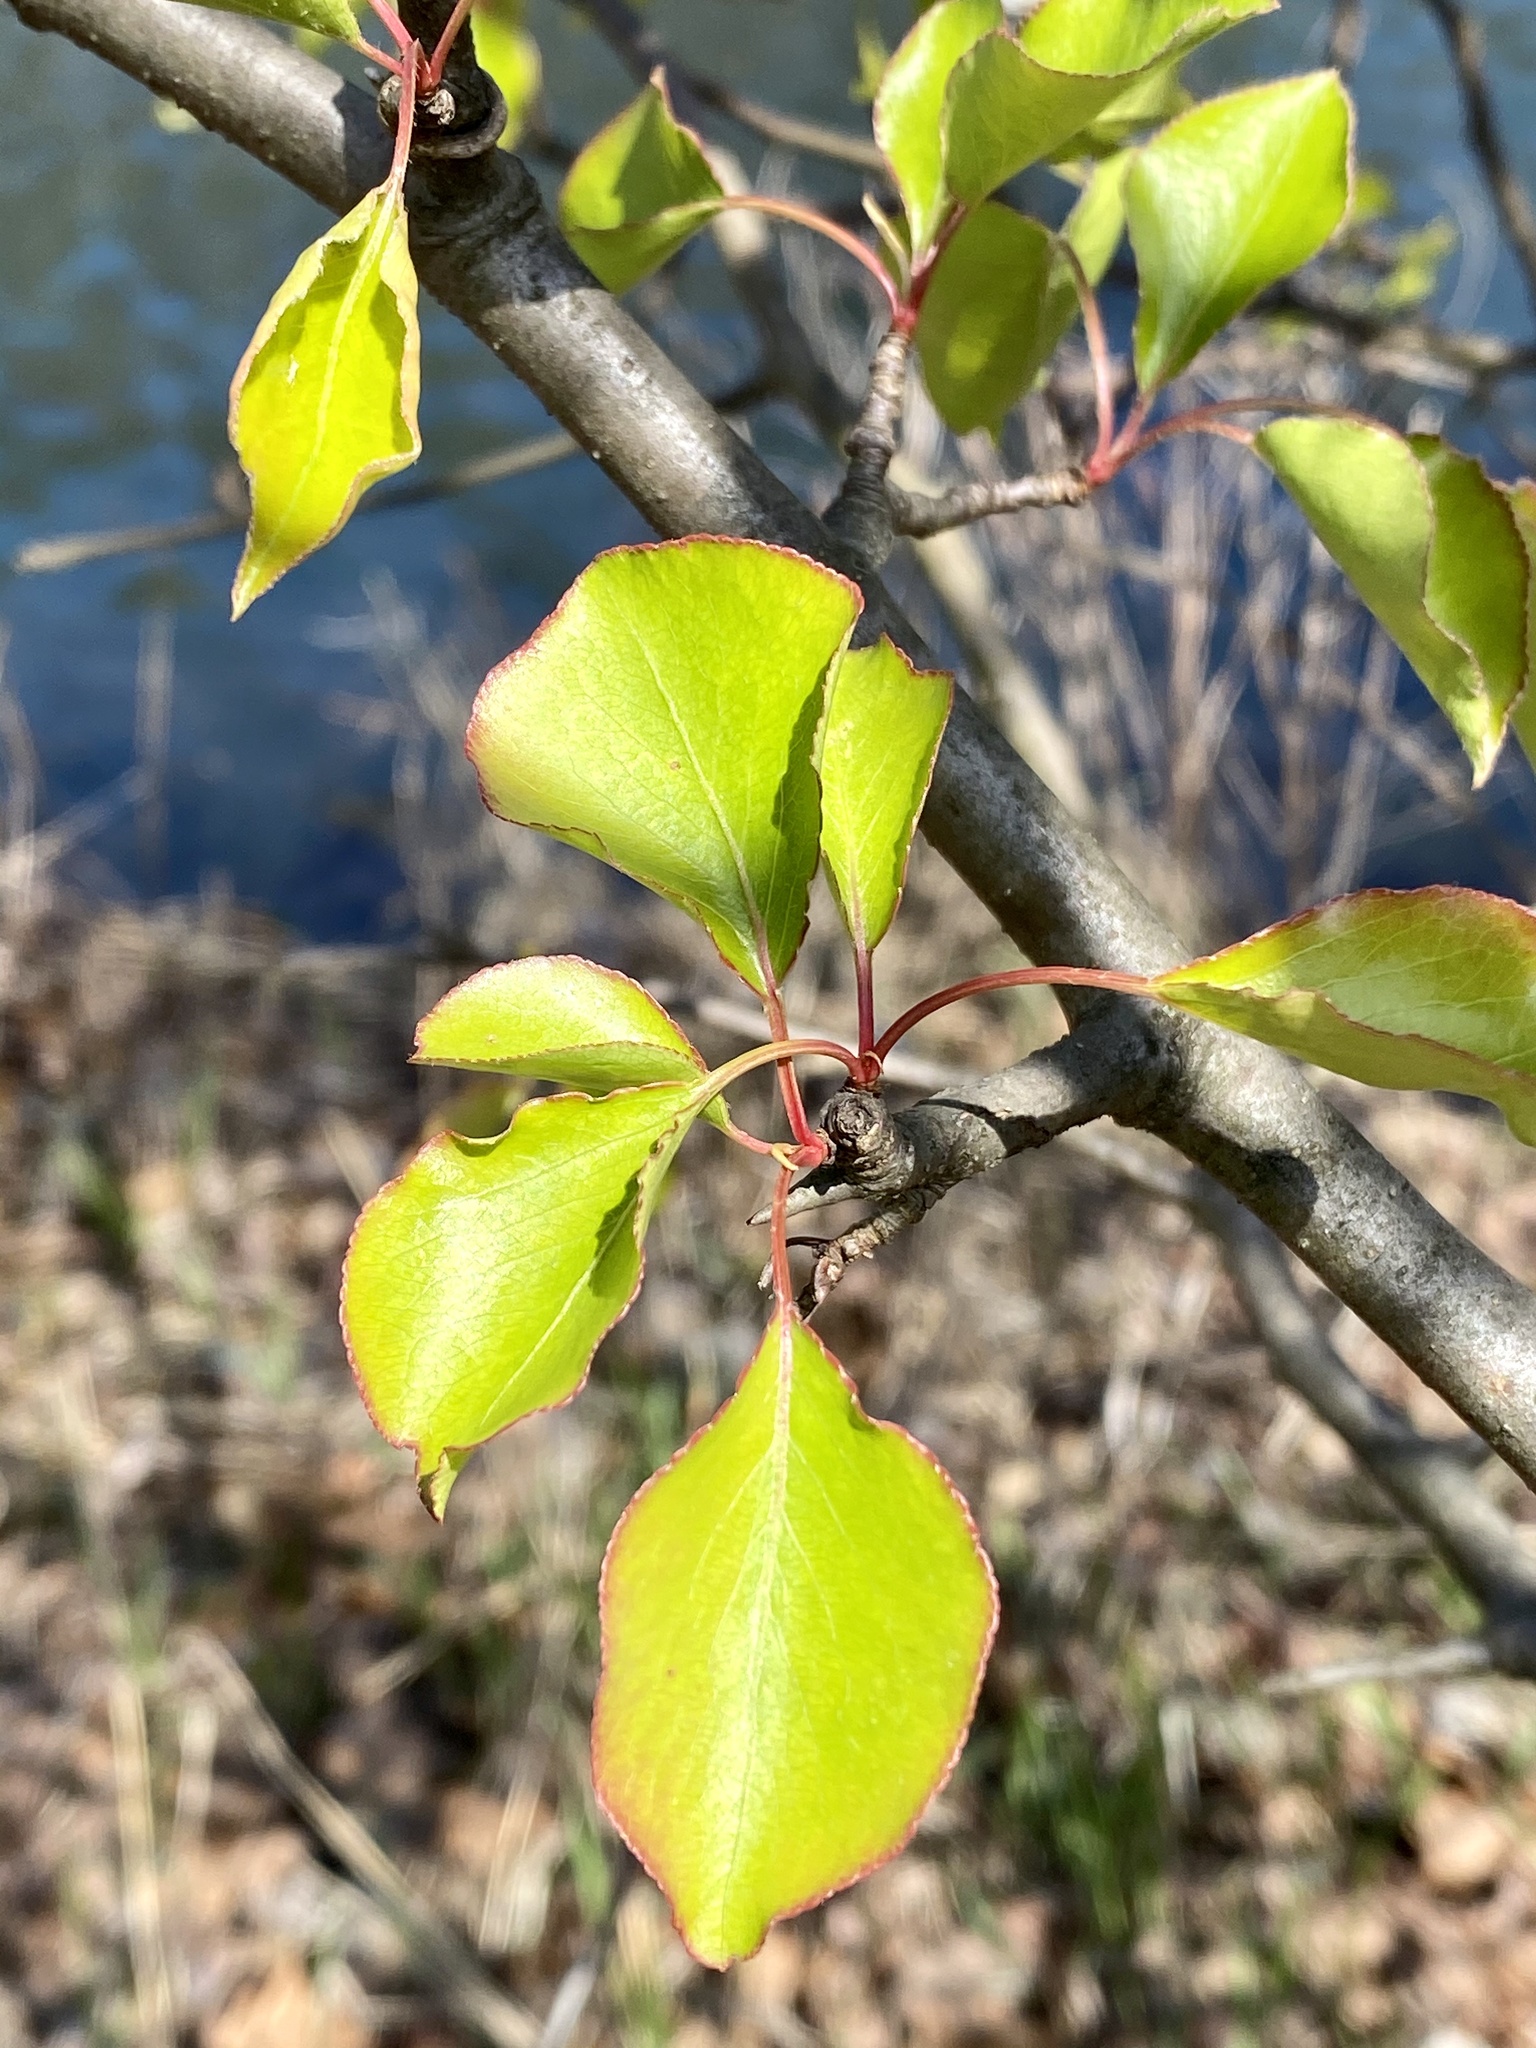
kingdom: Plantae
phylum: Tracheophyta
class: Magnoliopsida
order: Rosales
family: Rosaceae
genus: Pyrus
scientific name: Pyrus calleryana
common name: Callery pear
